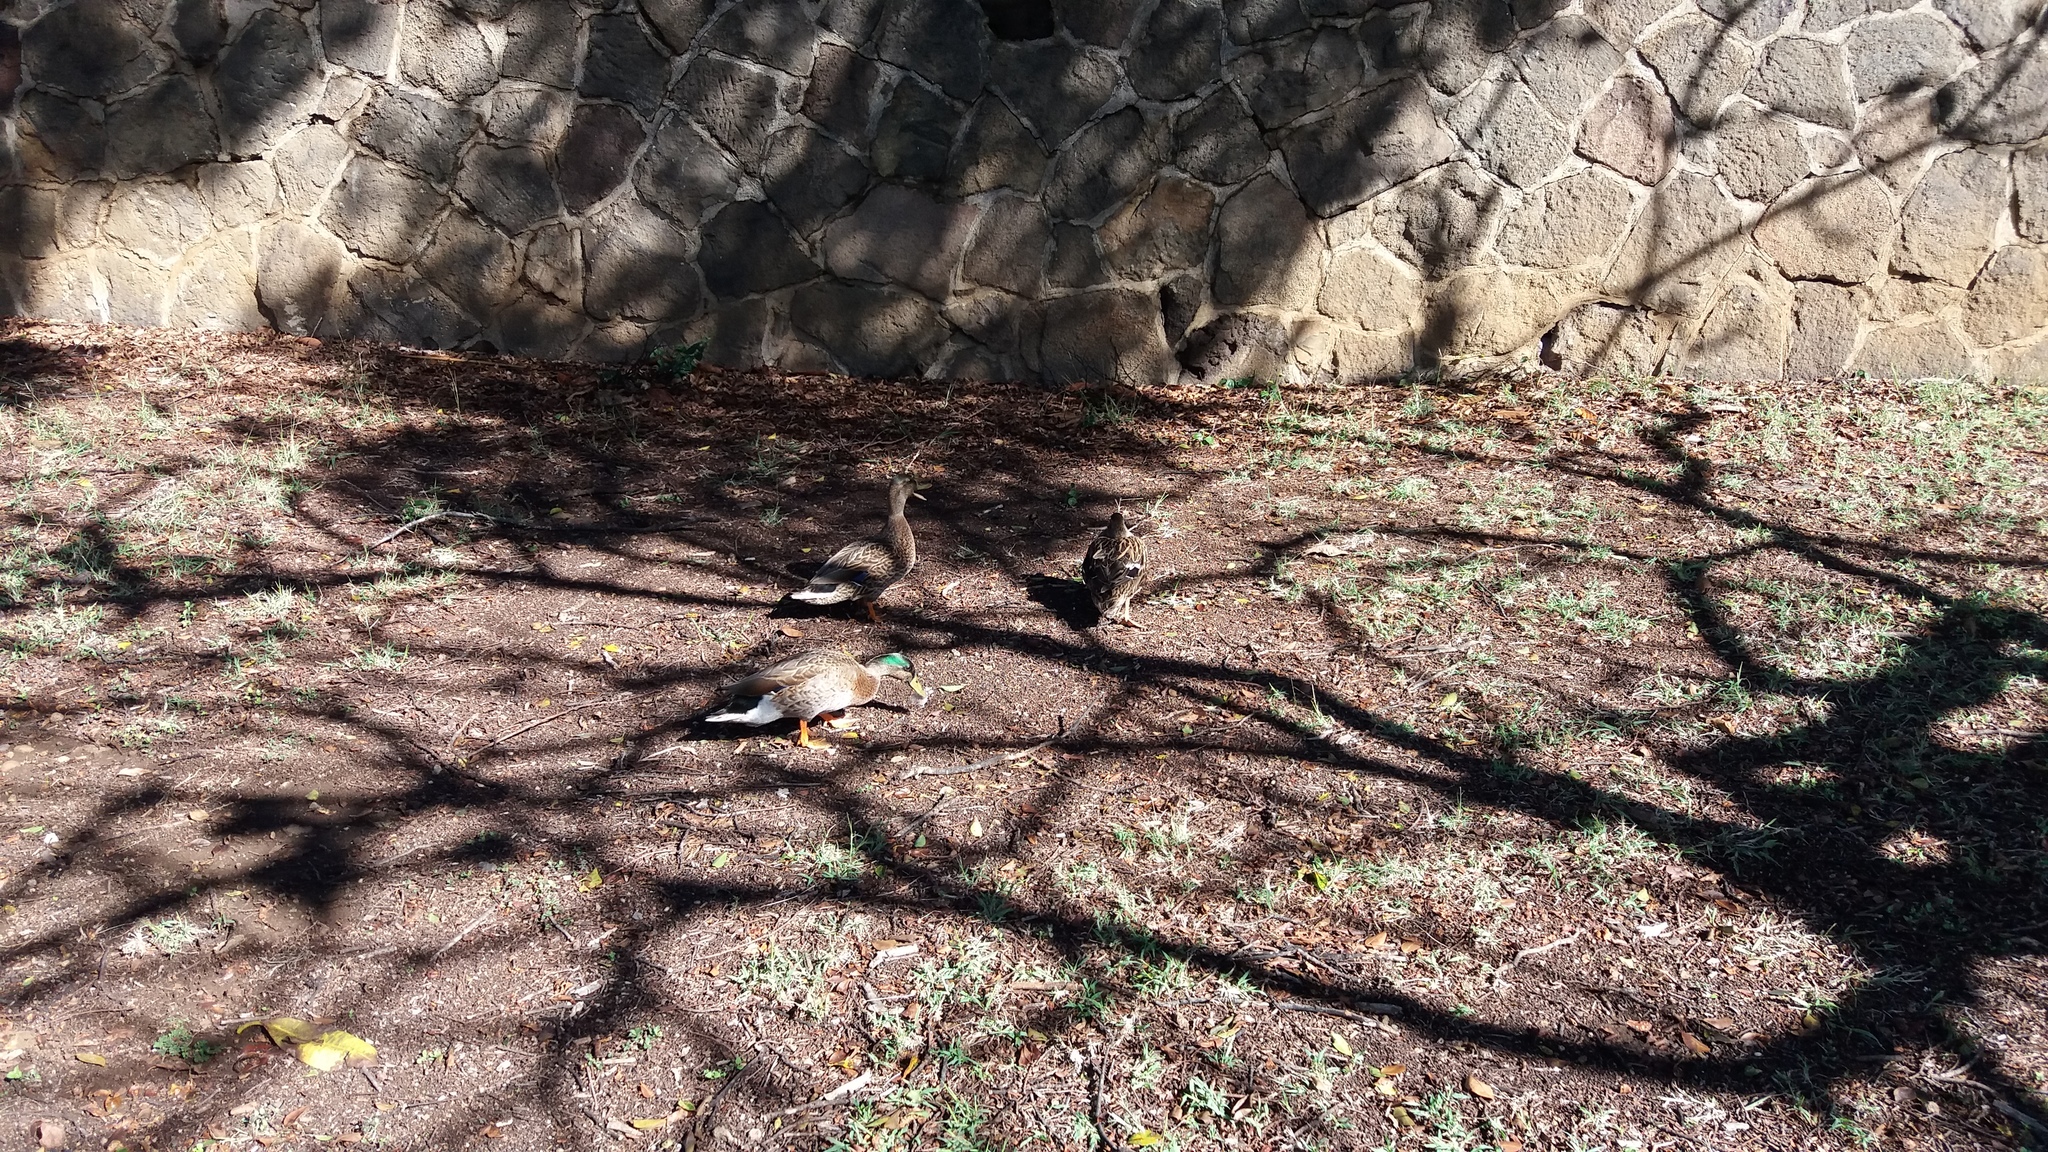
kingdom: Animalia
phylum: Chordata
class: Aves
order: Anseriformes
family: Anatidae
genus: Anas
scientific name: Anas
